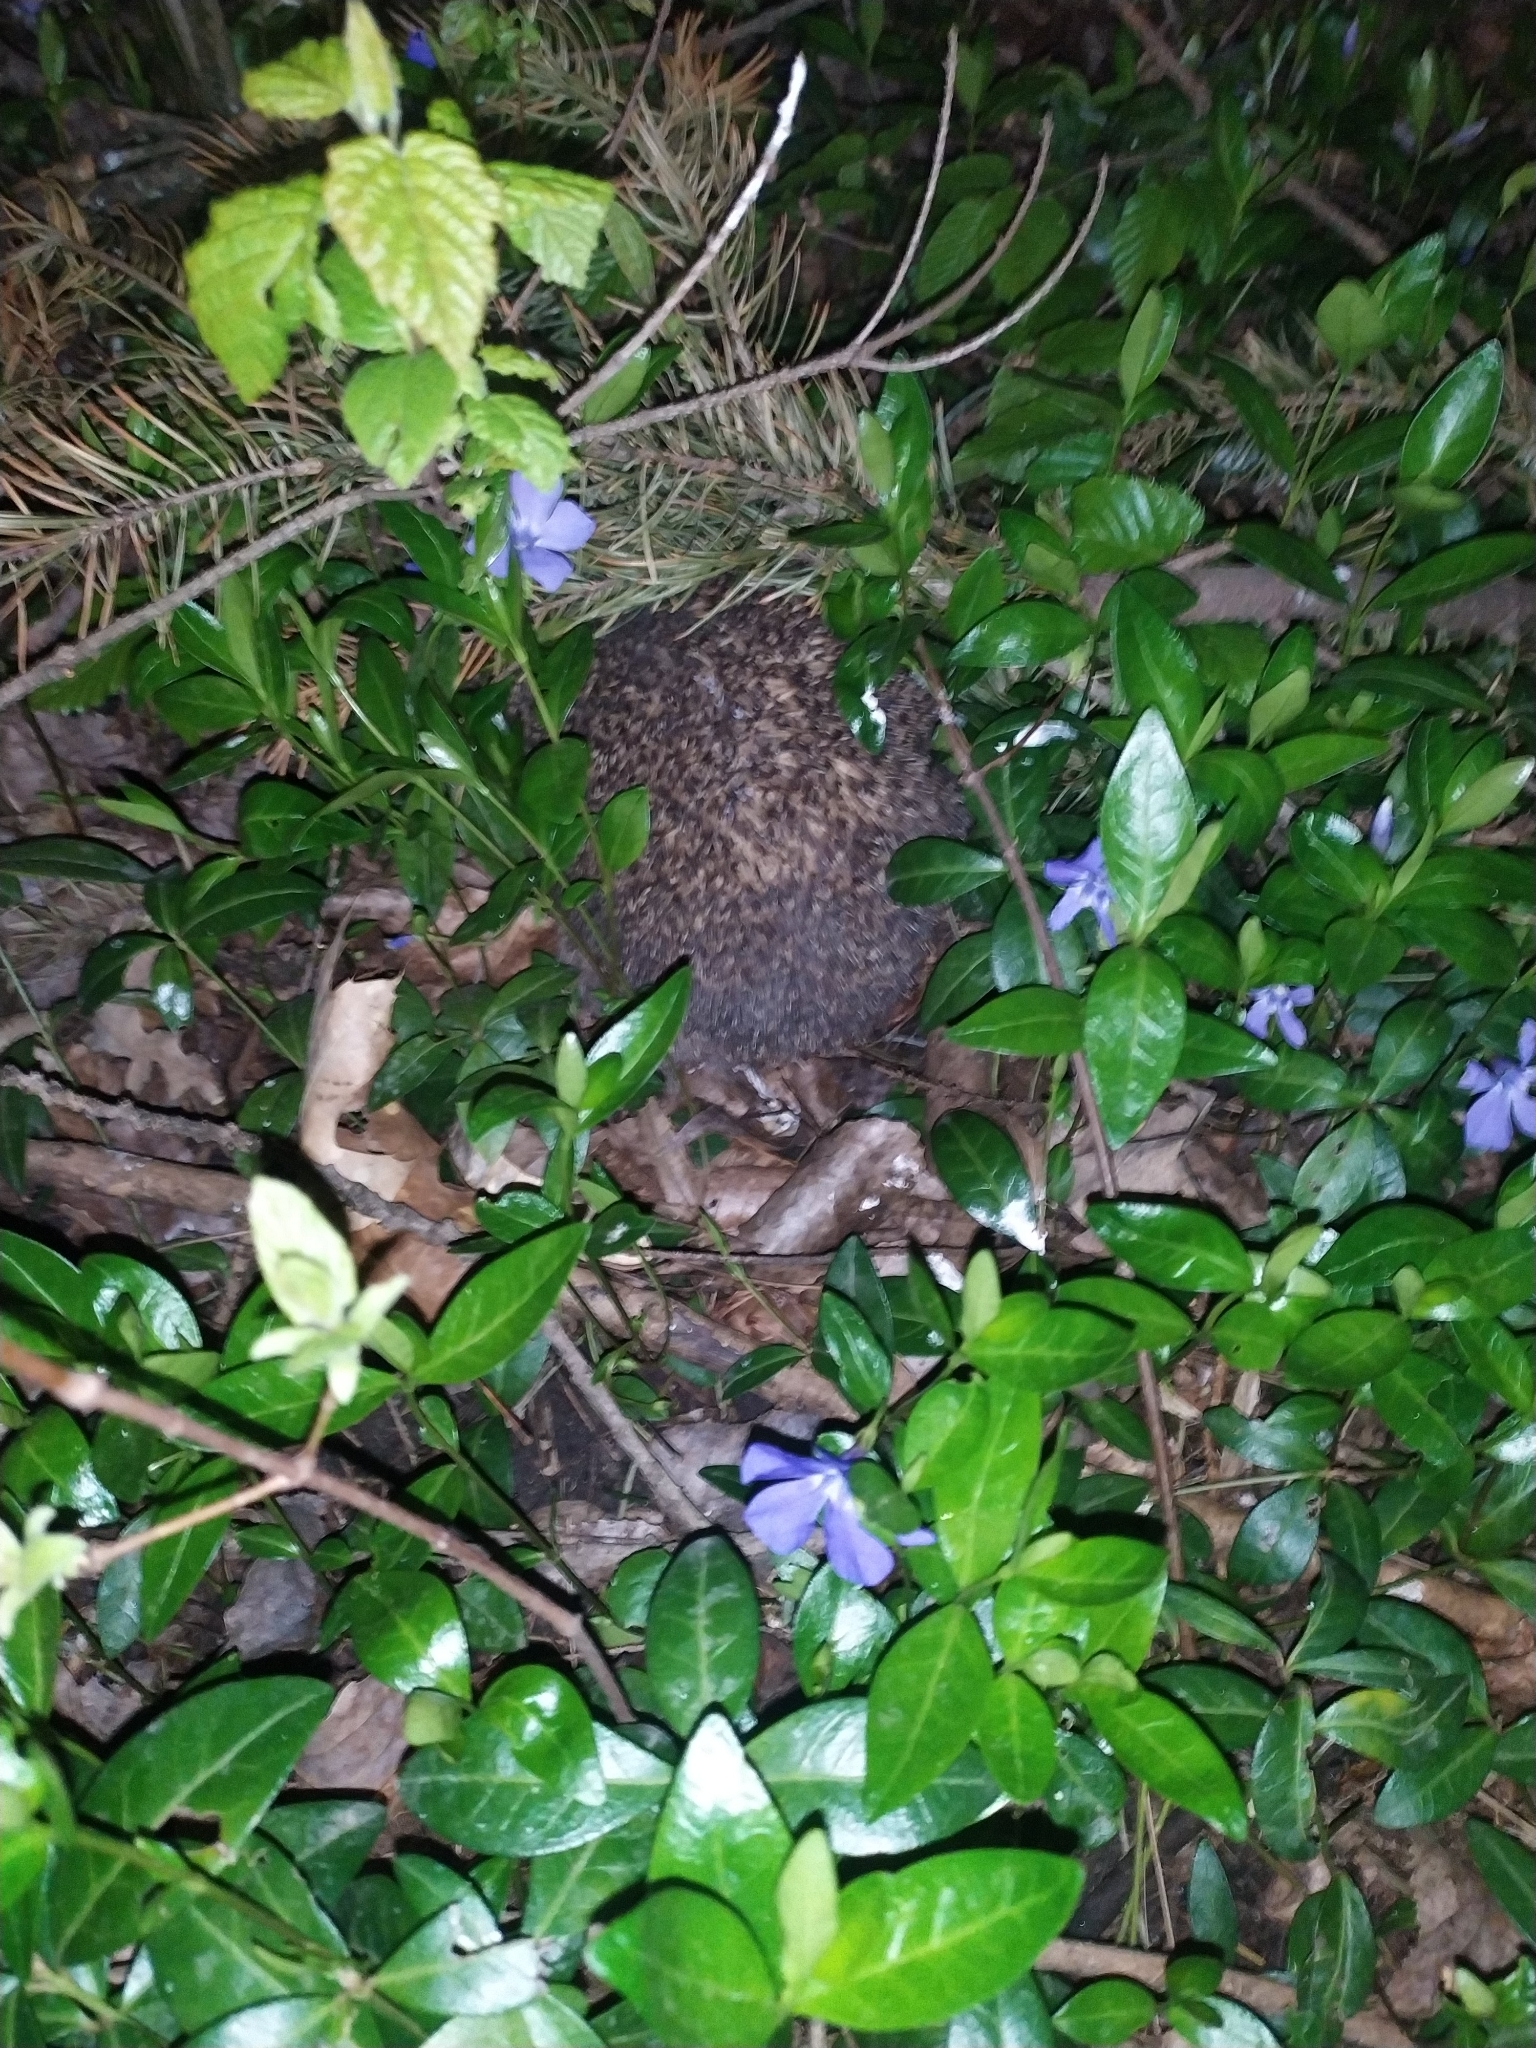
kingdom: Plantae
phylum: Tracheophyta
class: Magnoliopsida
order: Gentianales
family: Apocynaceae
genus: Vinca
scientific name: Vinca minor
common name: Lesser periwinkle
